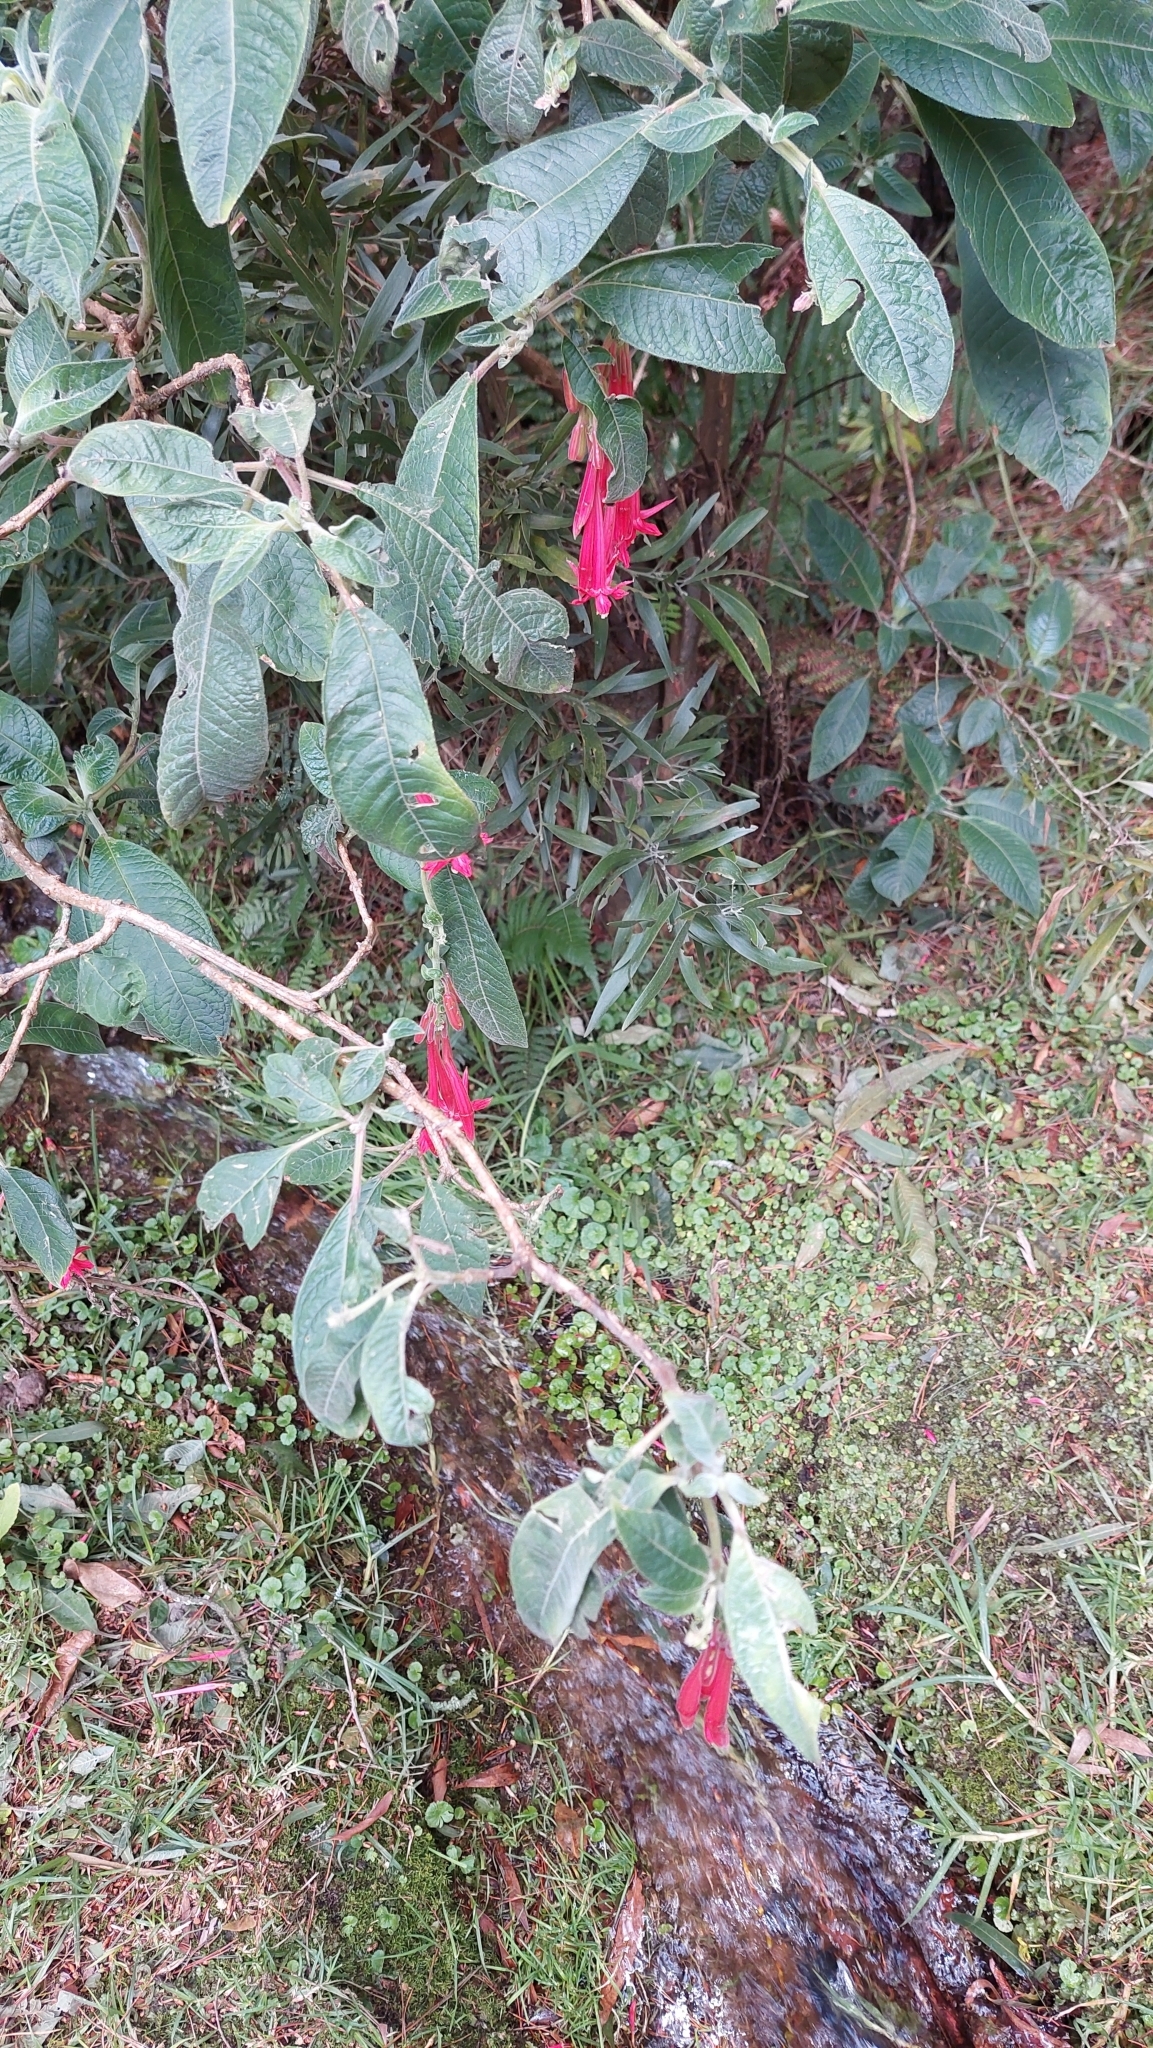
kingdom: Plantae
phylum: Tracheophyta
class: Magnoliopsida
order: Myrtales
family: Onagraceae
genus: Fuchsia
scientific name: Fuchsia boliviana
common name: Bolivian fuchsia
